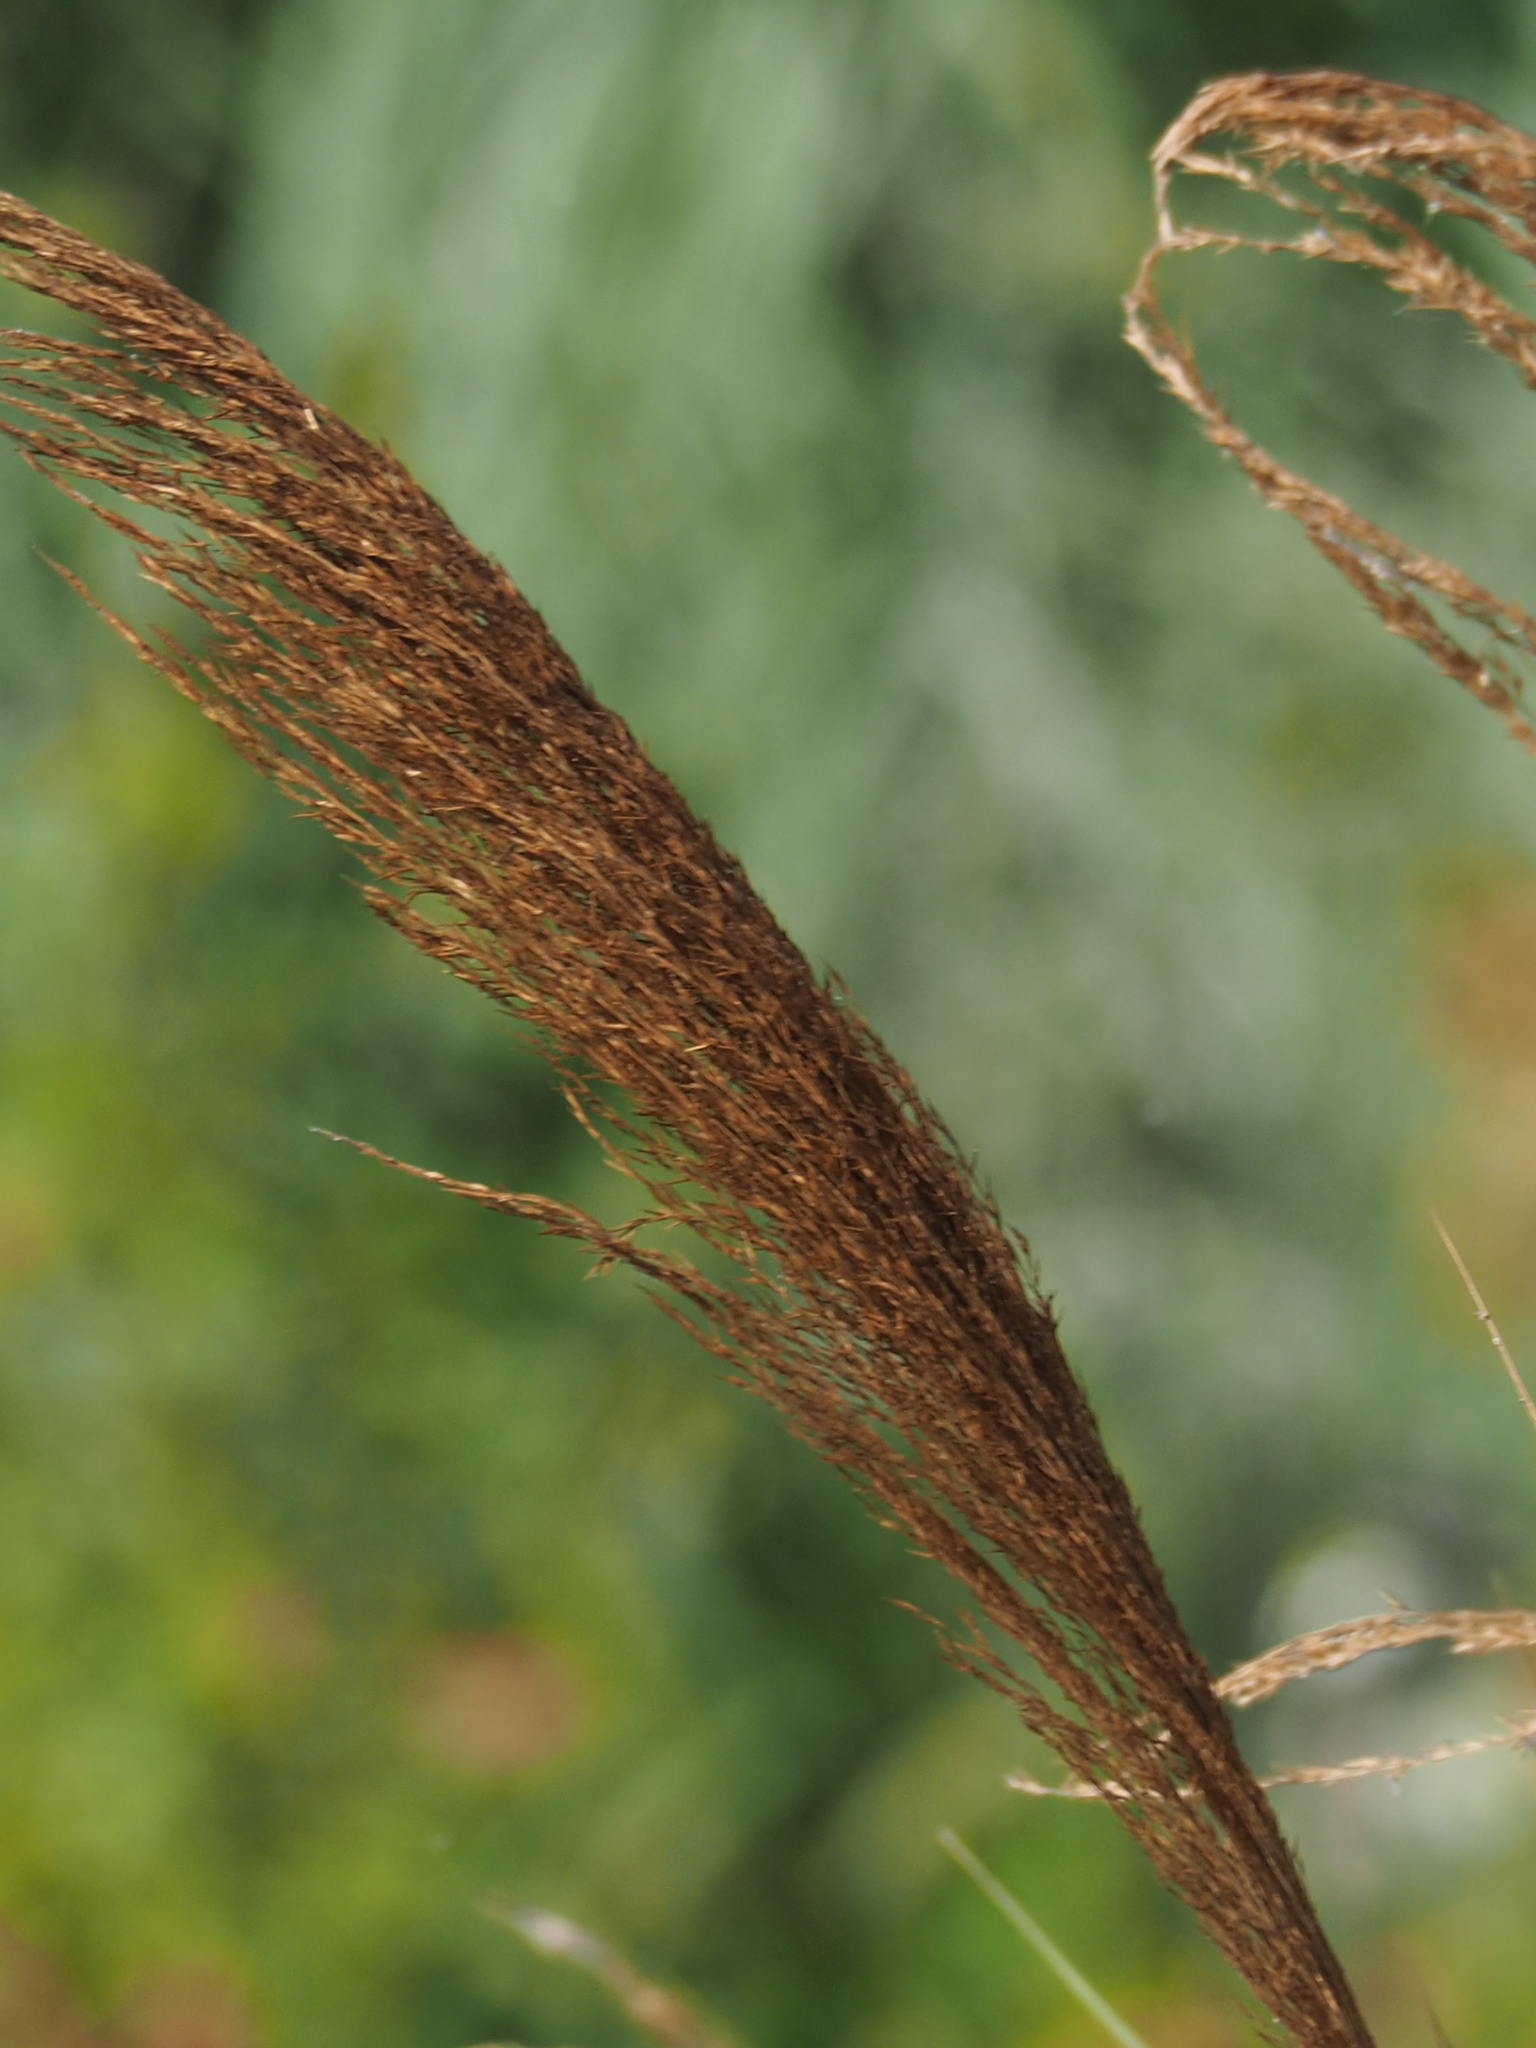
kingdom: Plantae
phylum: Tracheophyta
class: Liliopsida
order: Poales
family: Poaceae
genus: Phragmites
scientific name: Phragmites karka
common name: Tropical reed
